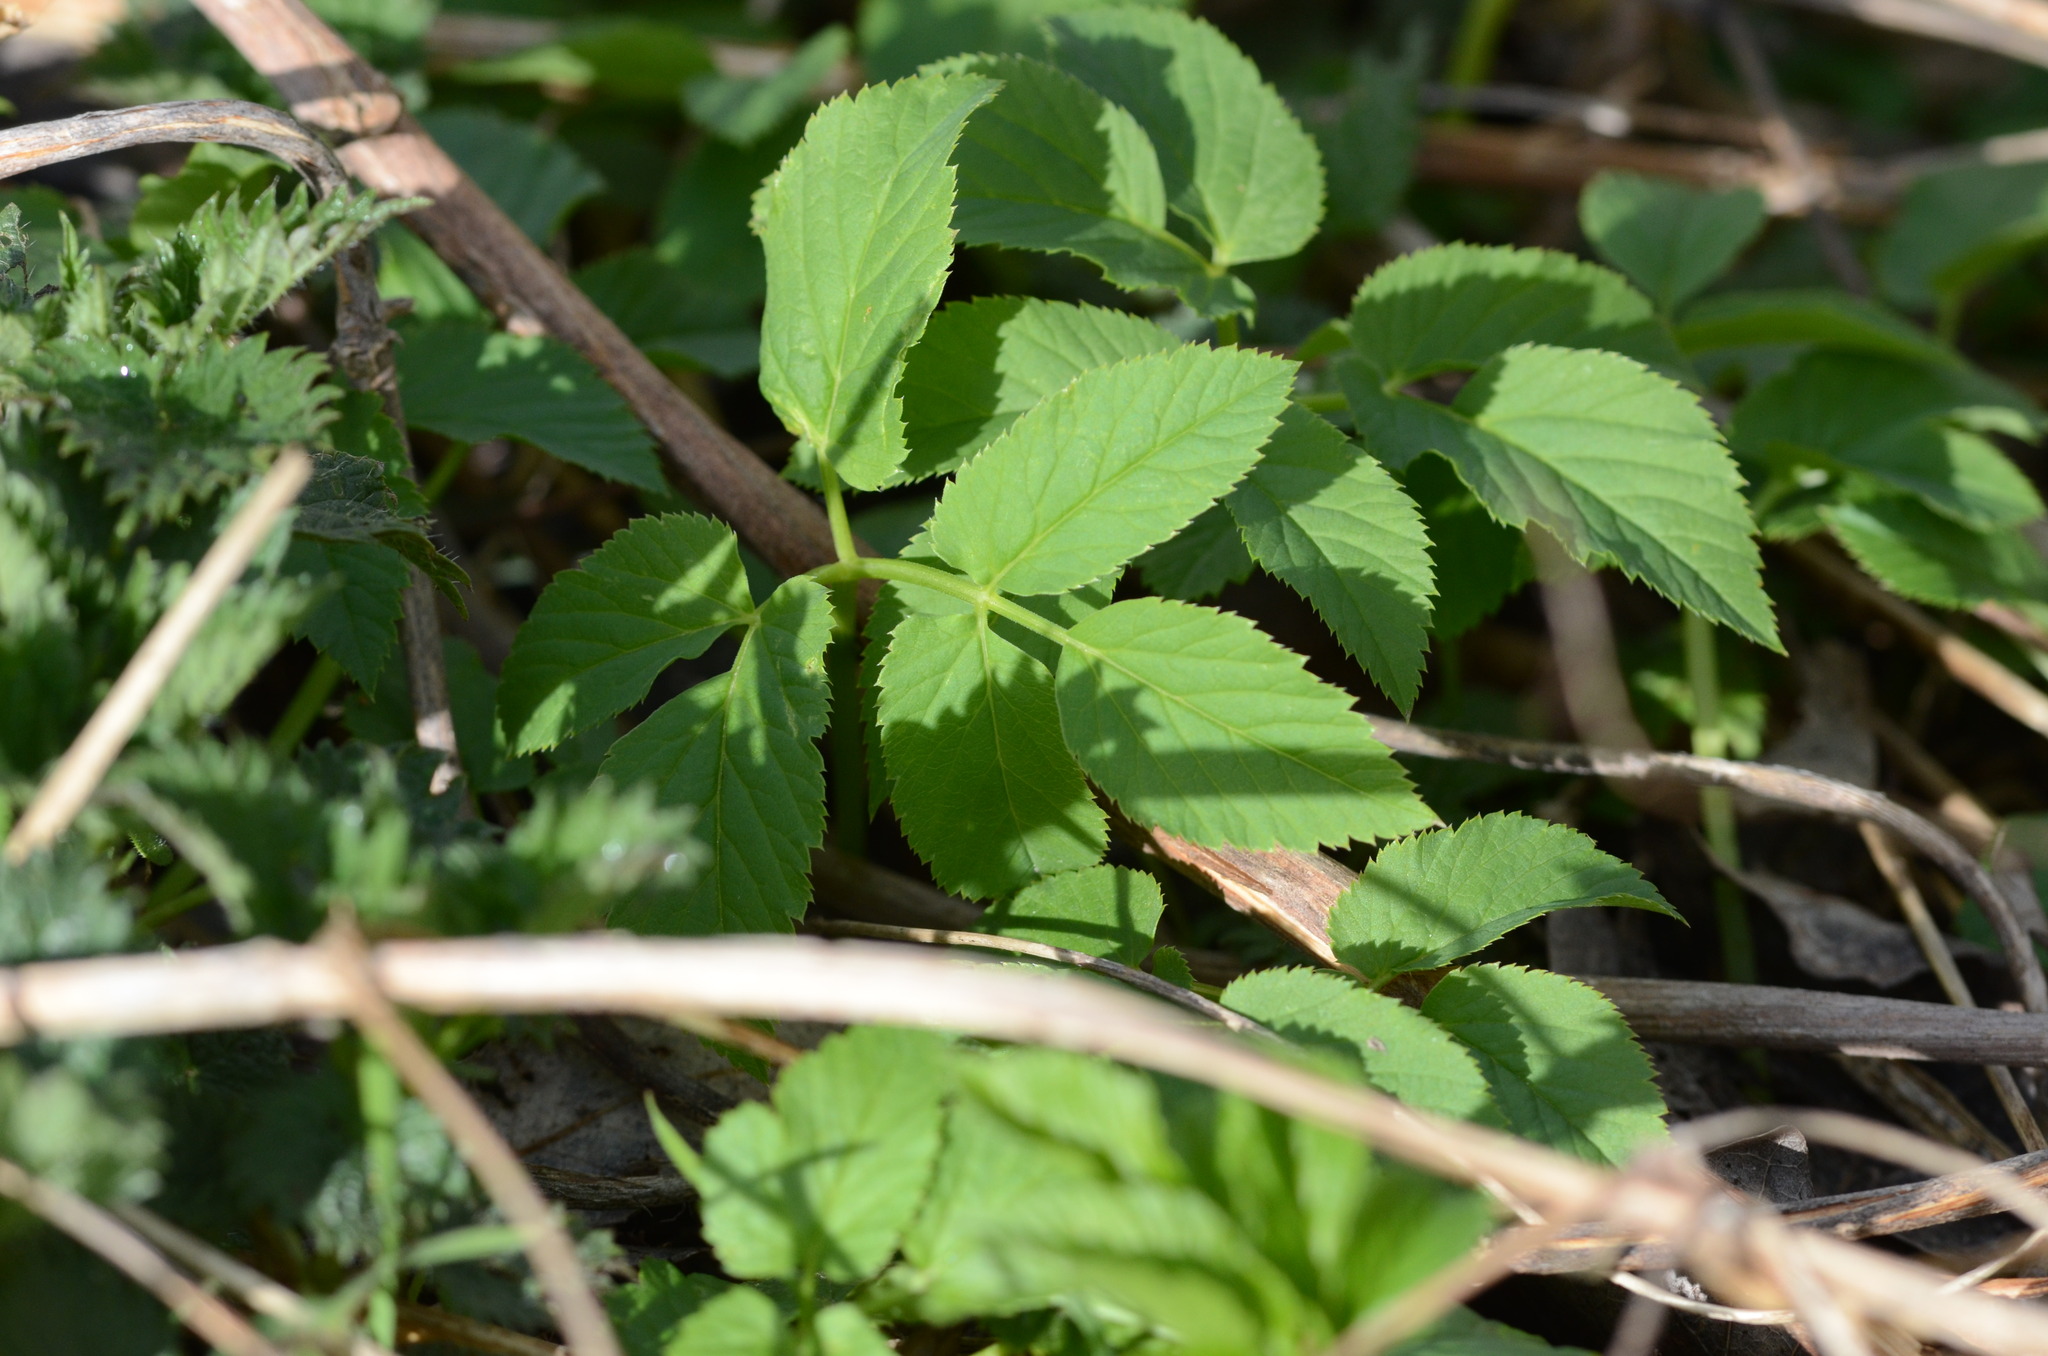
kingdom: Plantae
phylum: Tracheophyta
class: Magnoliopsida
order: Apiales
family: Apiaceae
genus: Aegopodium
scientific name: Aegopodium podagraria
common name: Ground-elder
